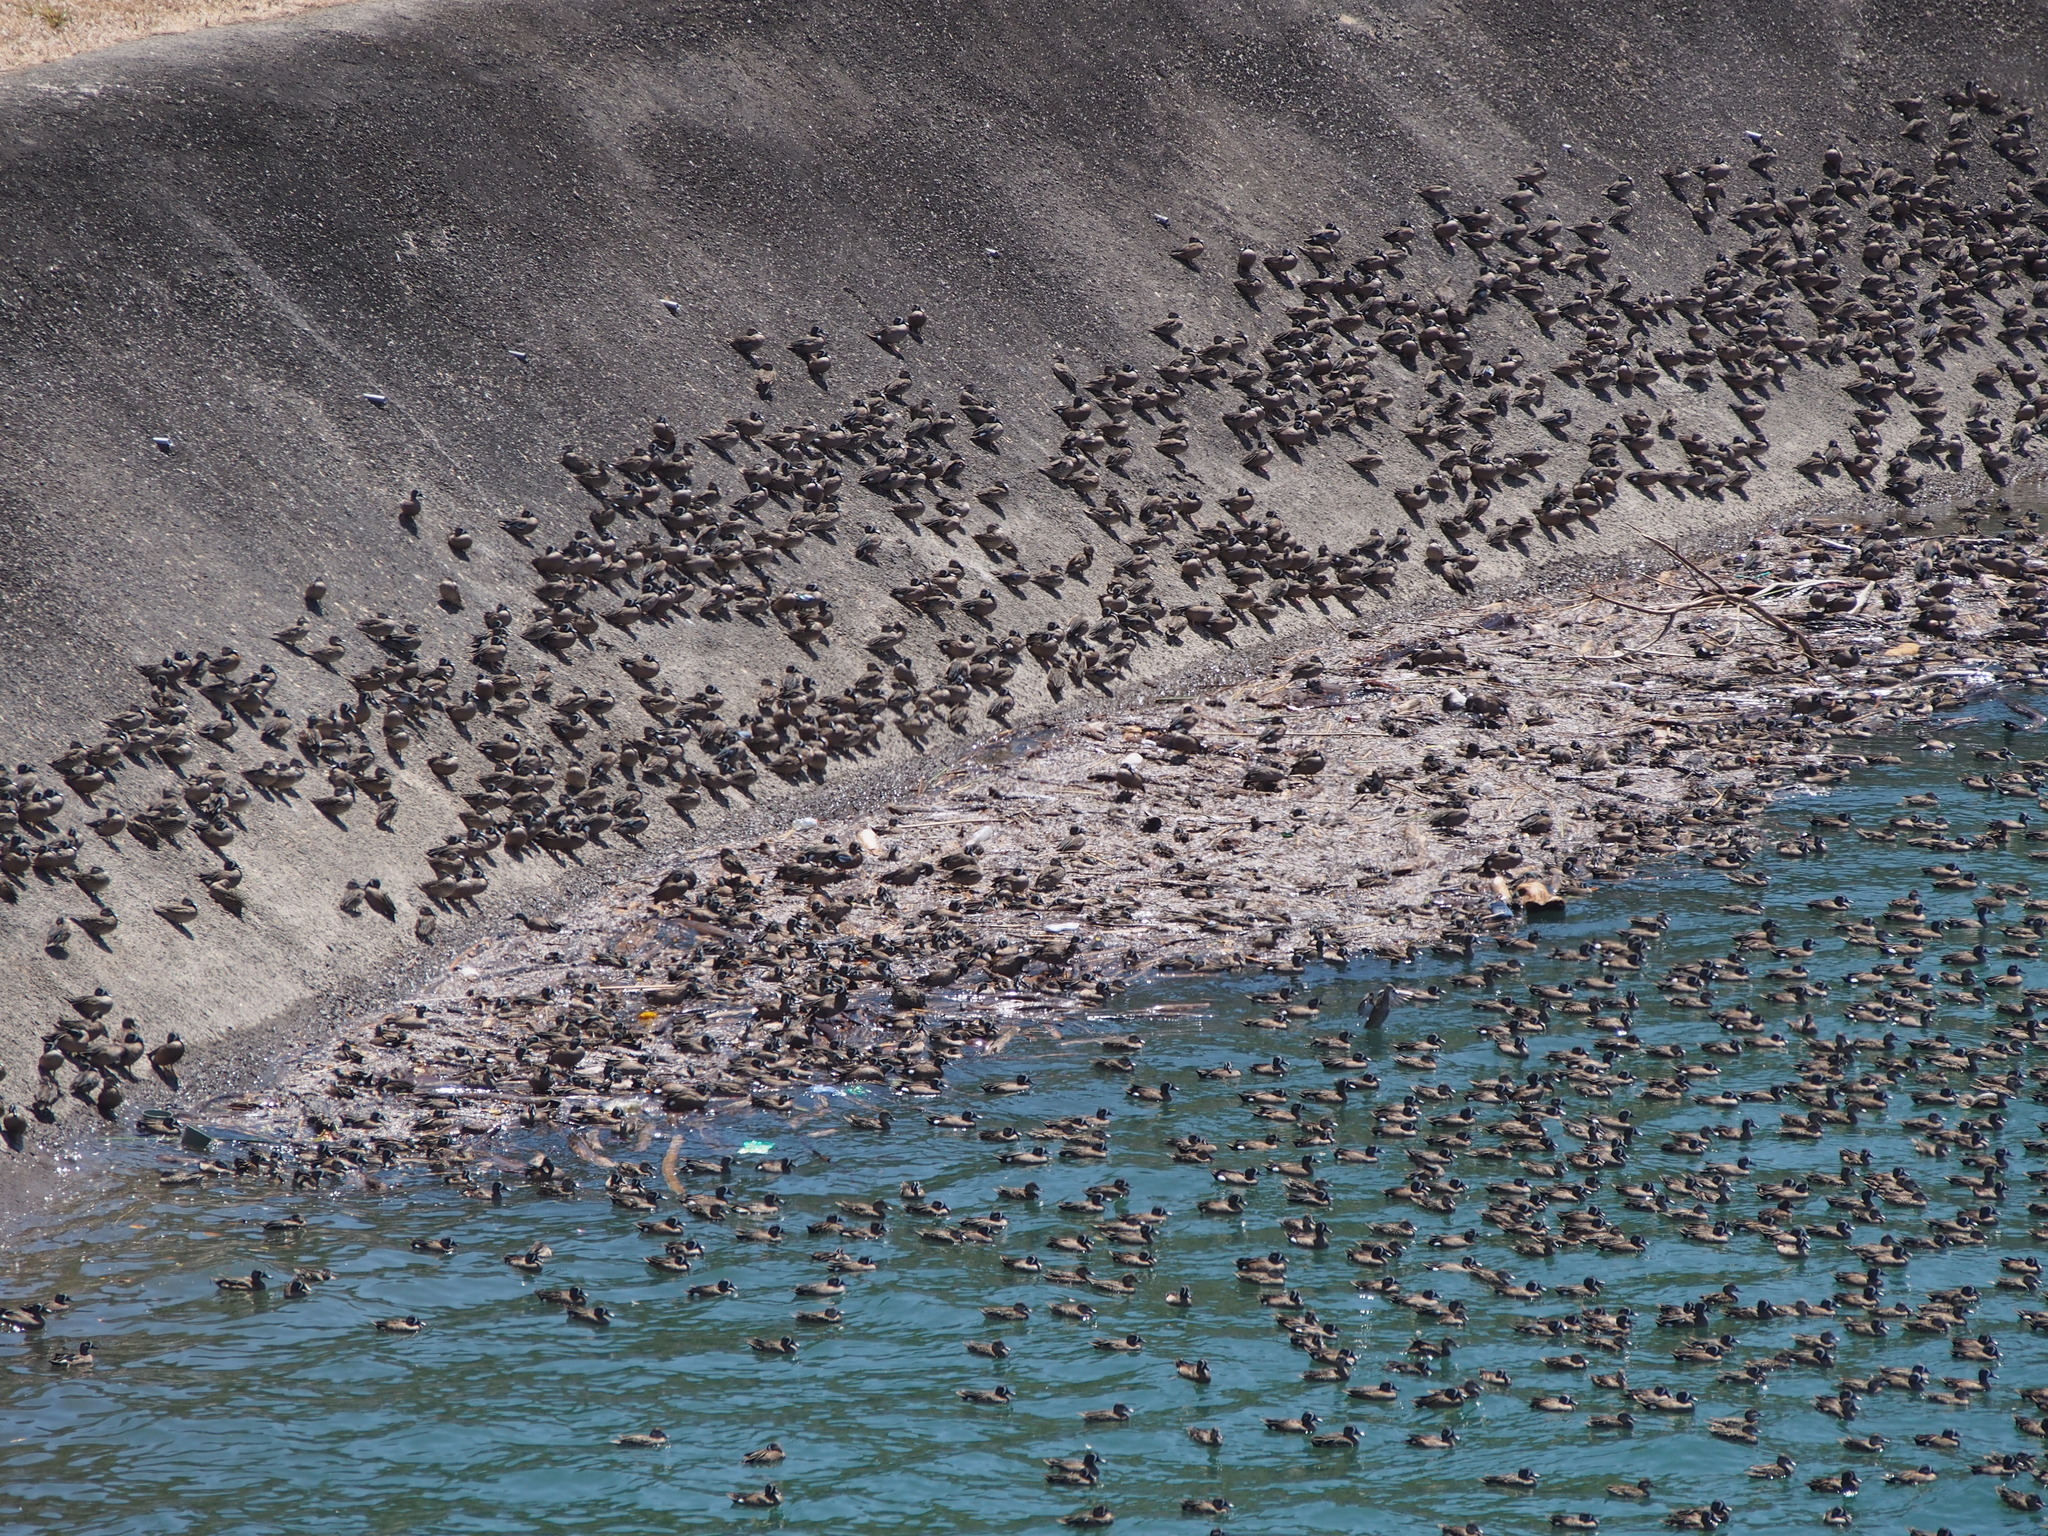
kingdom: Animalia
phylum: Chordata
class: Aves
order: Anseriformes
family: Anatidae
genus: Spatula
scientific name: Spatula discors
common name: Blue-winged teal
